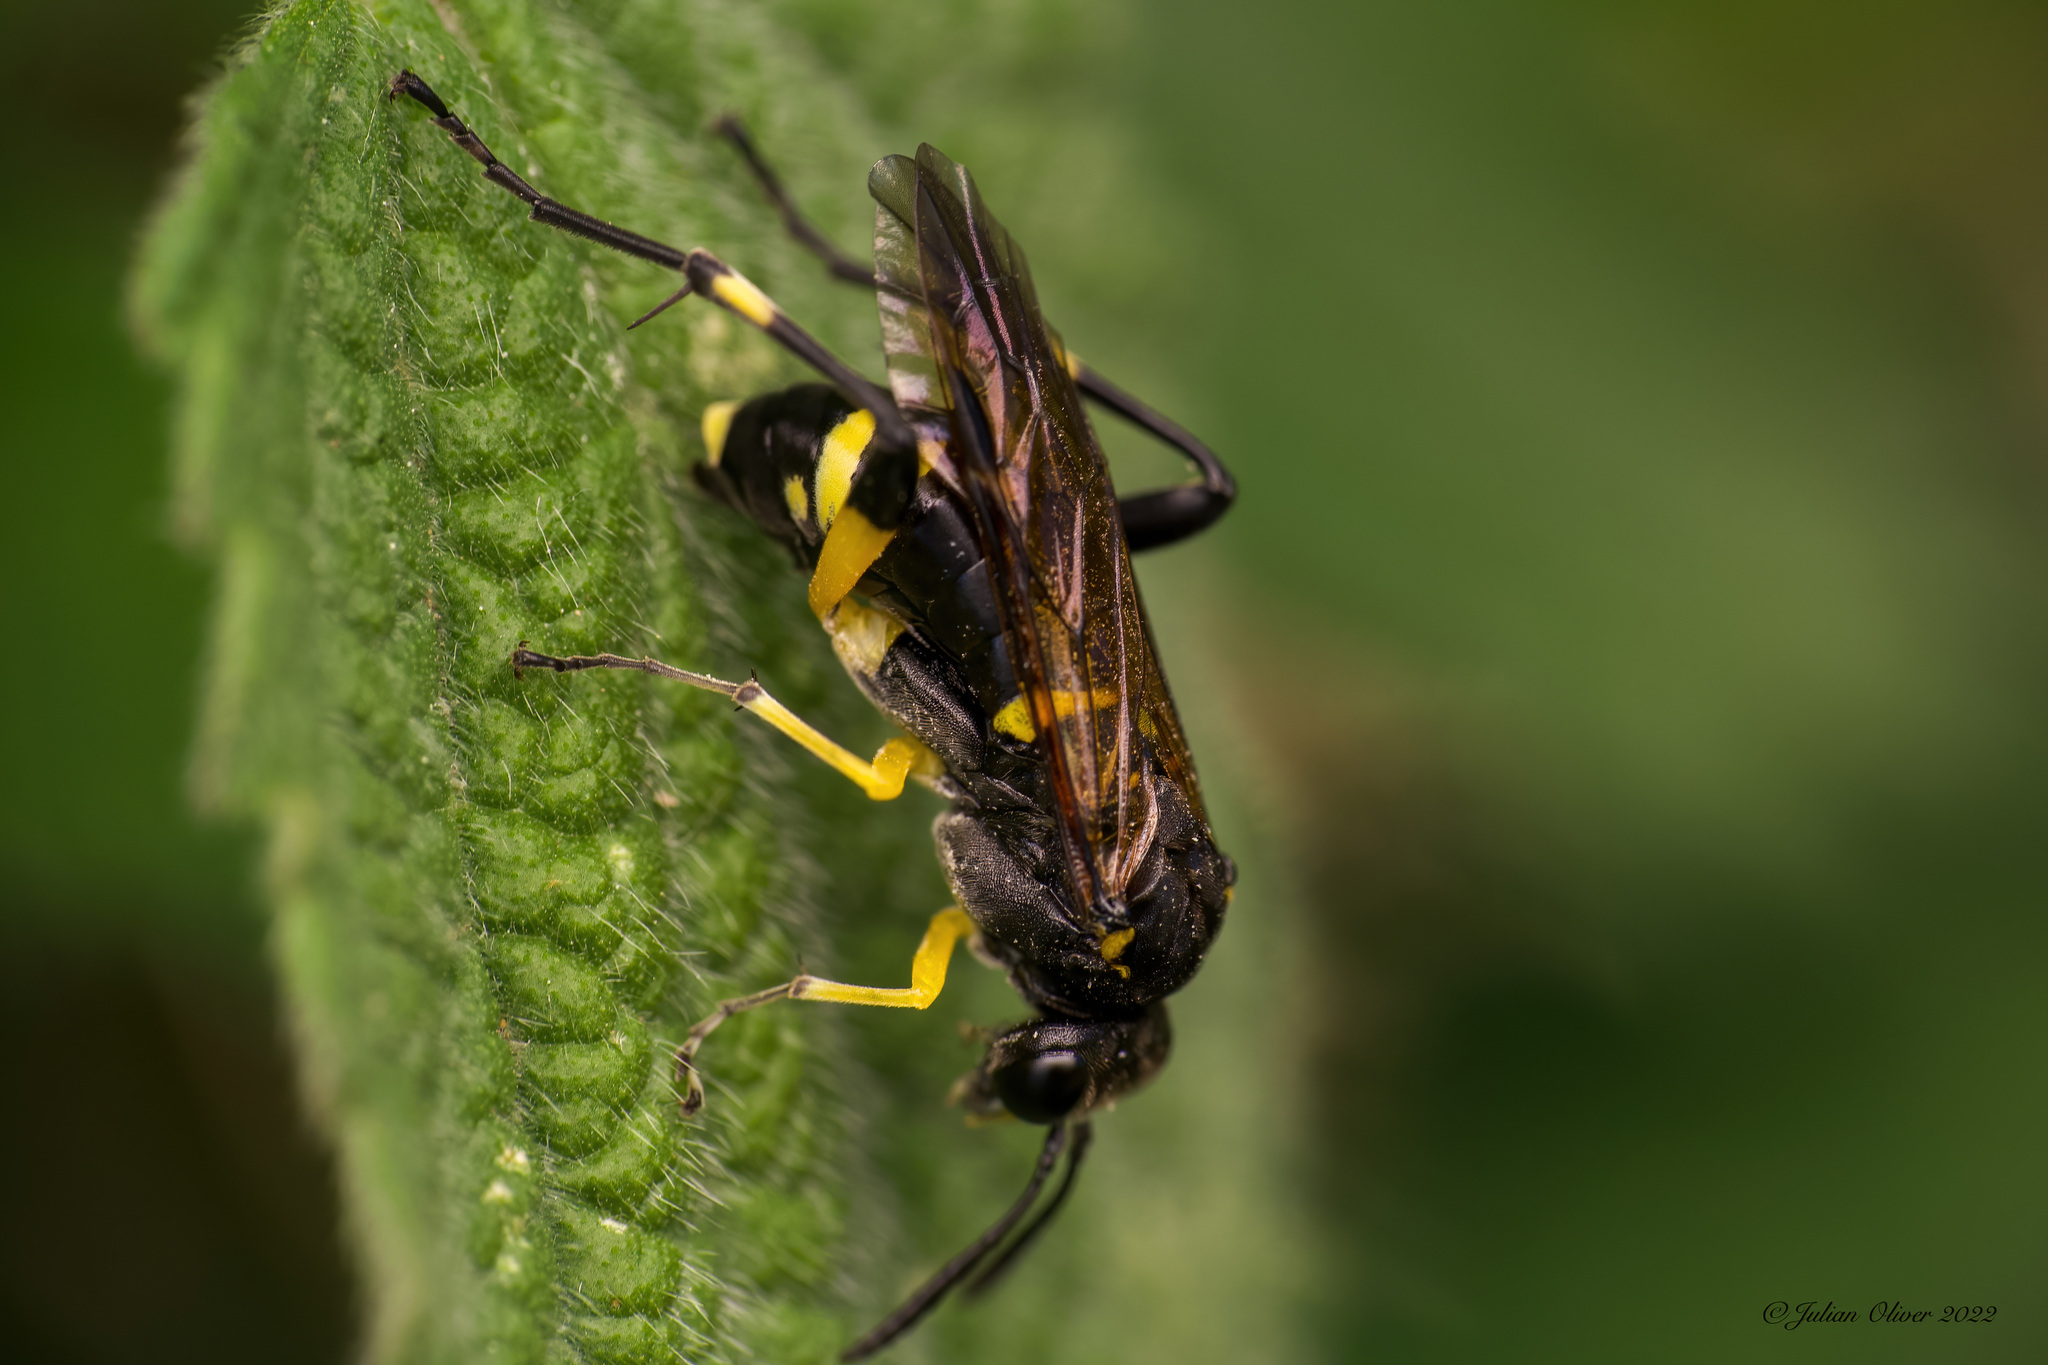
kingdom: Animalia
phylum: Arthropoda
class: Insecta
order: Hymenoptera
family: Tenthredinidae
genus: Macrophya
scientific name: Macrophya montana
